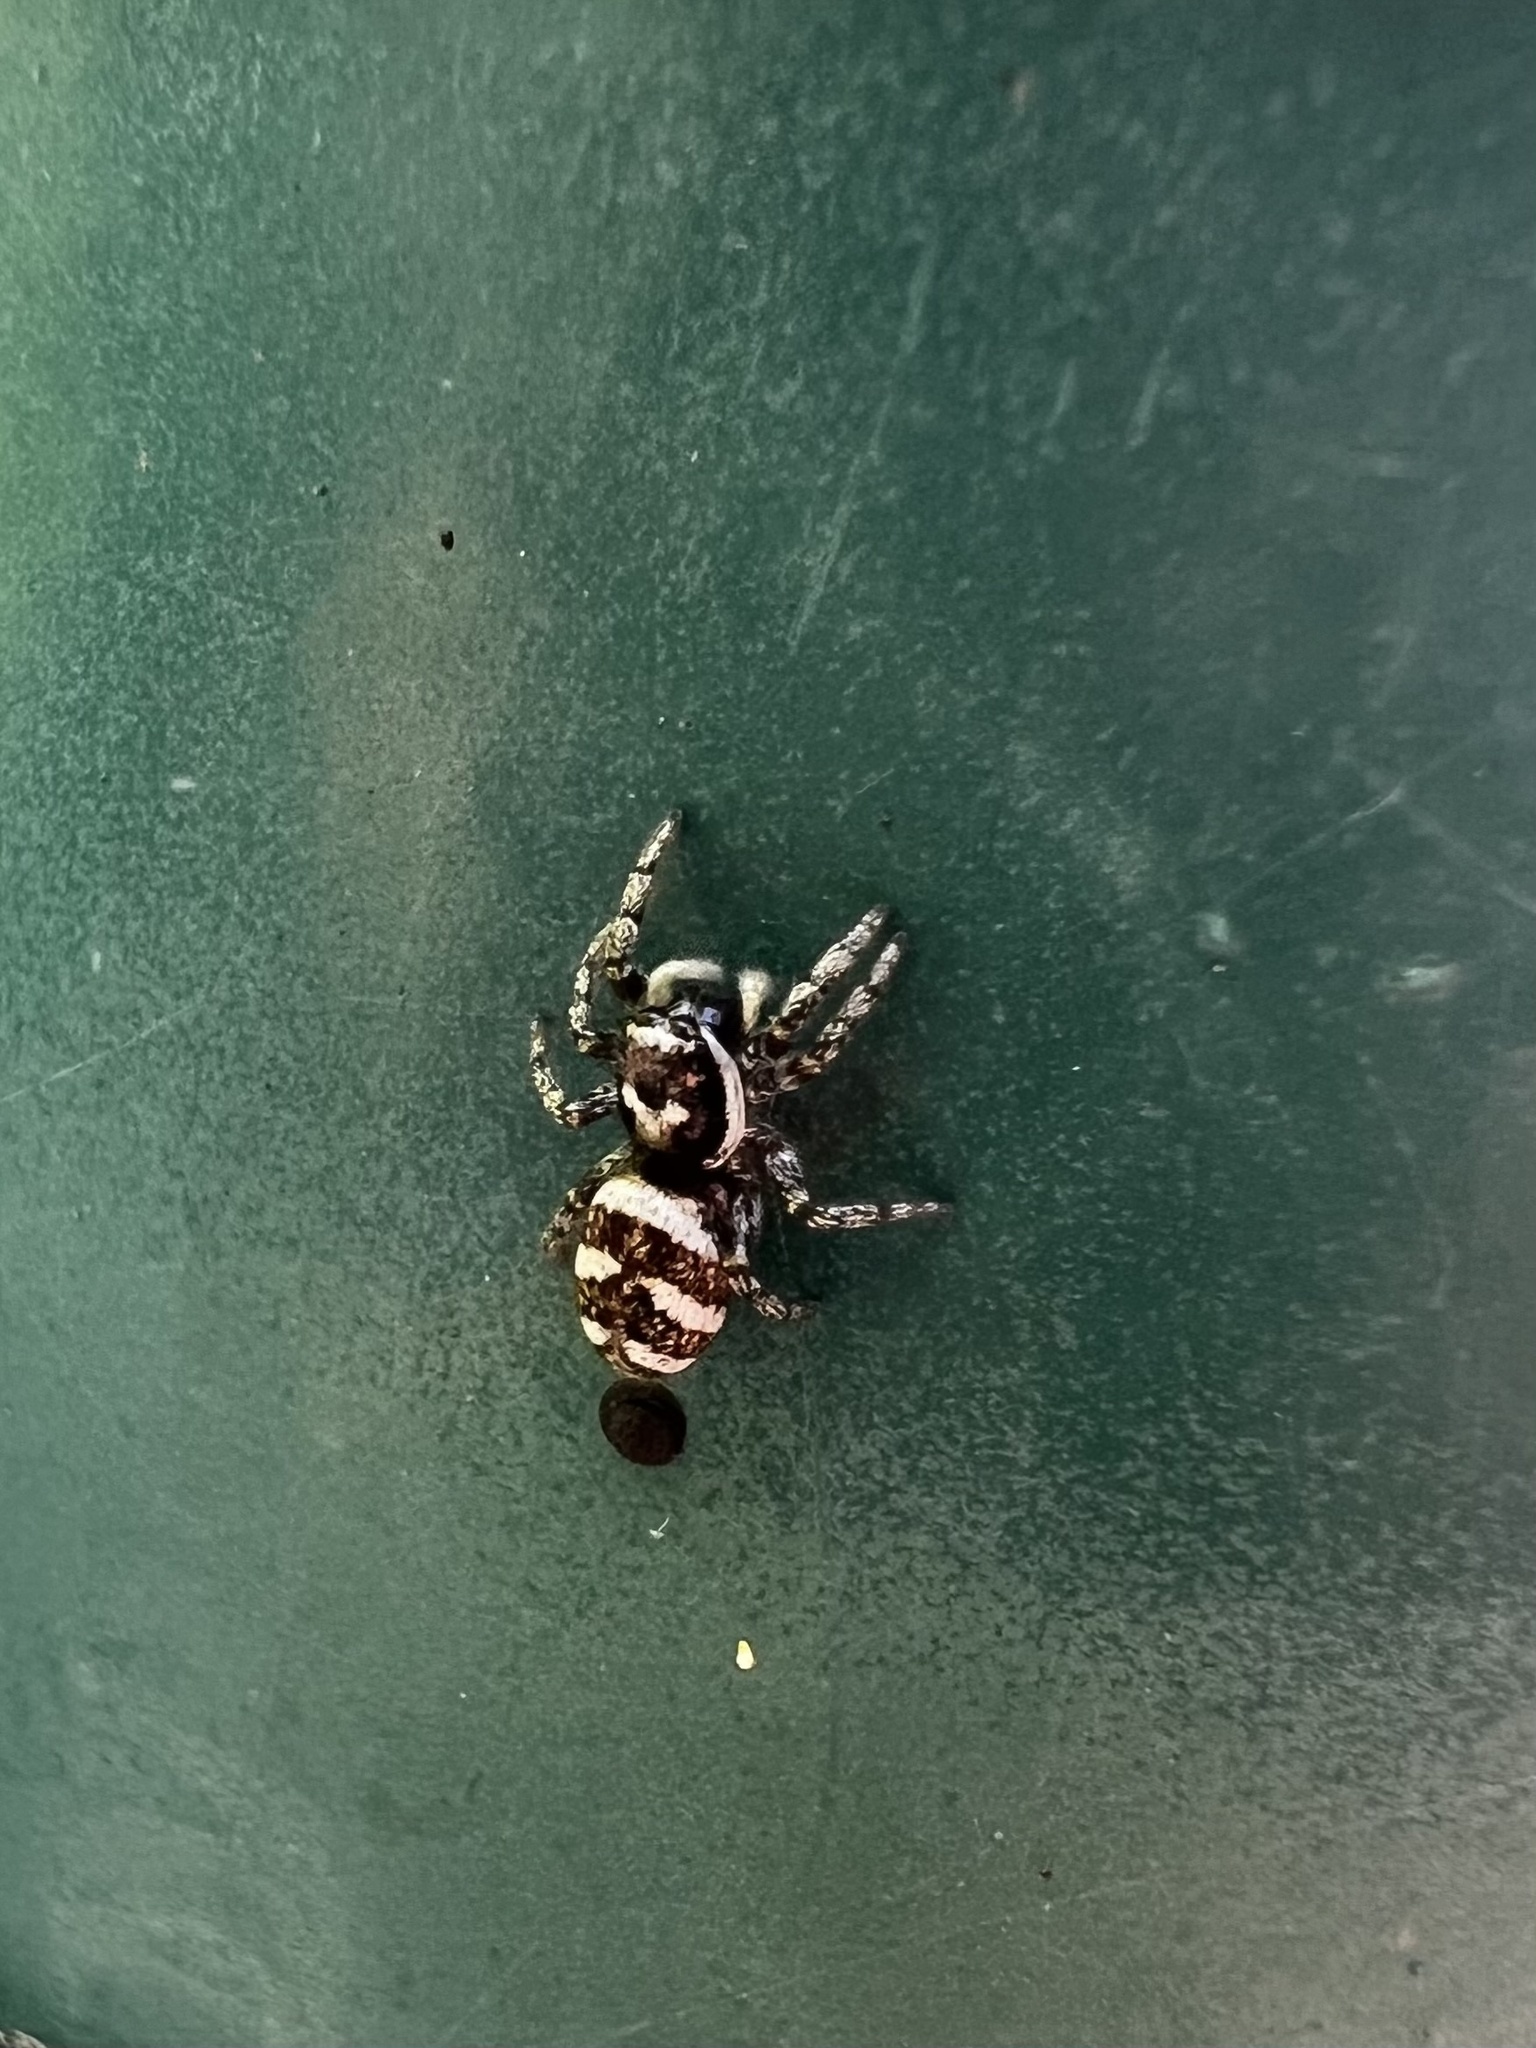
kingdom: Animalia
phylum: Arthropoda
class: Arachnida
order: Araneae
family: Salticidae
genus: Salticus
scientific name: Salticus scenicus
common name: Zebra jumper
